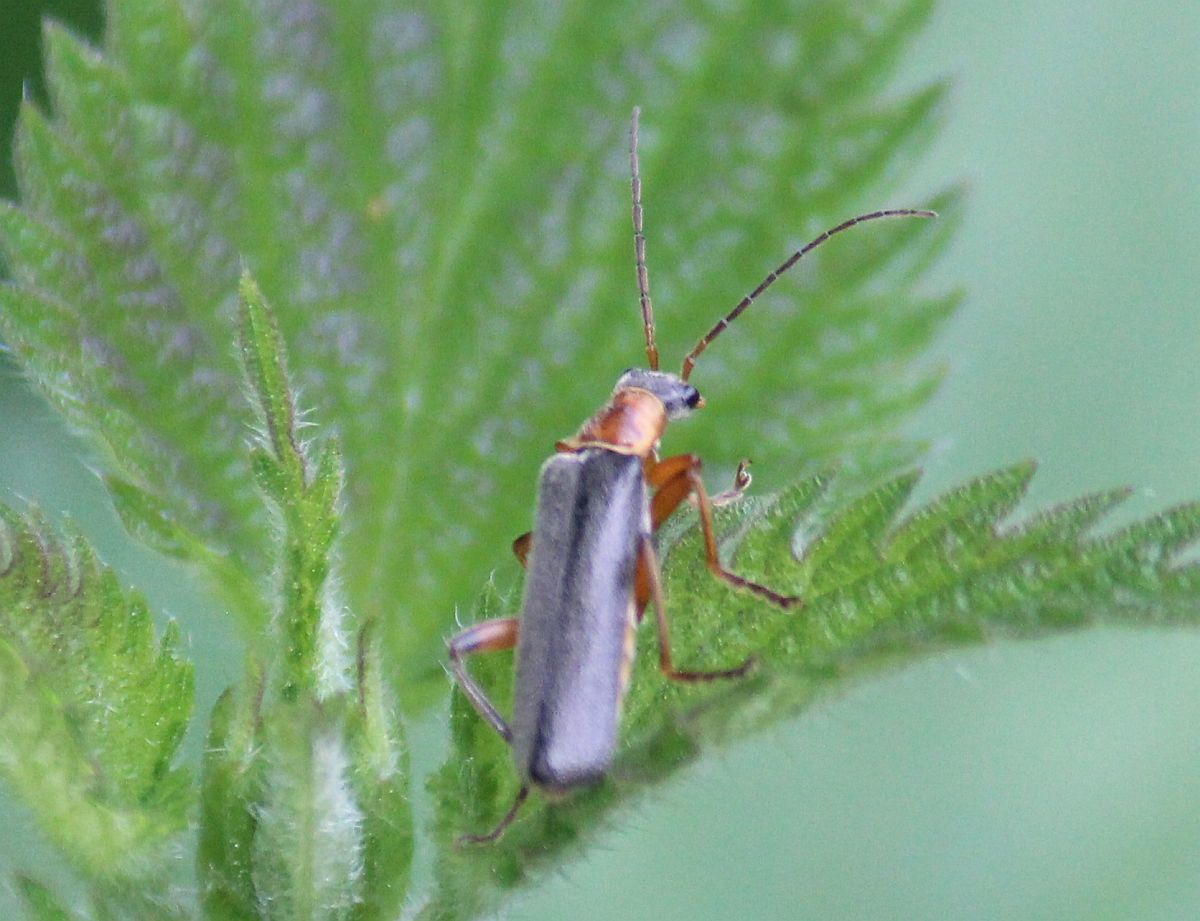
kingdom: Animalia
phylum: Arthropoda
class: Insecta
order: Coleoptera
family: Cantharidae
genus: Cantharis
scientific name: Cantharis nigricans
